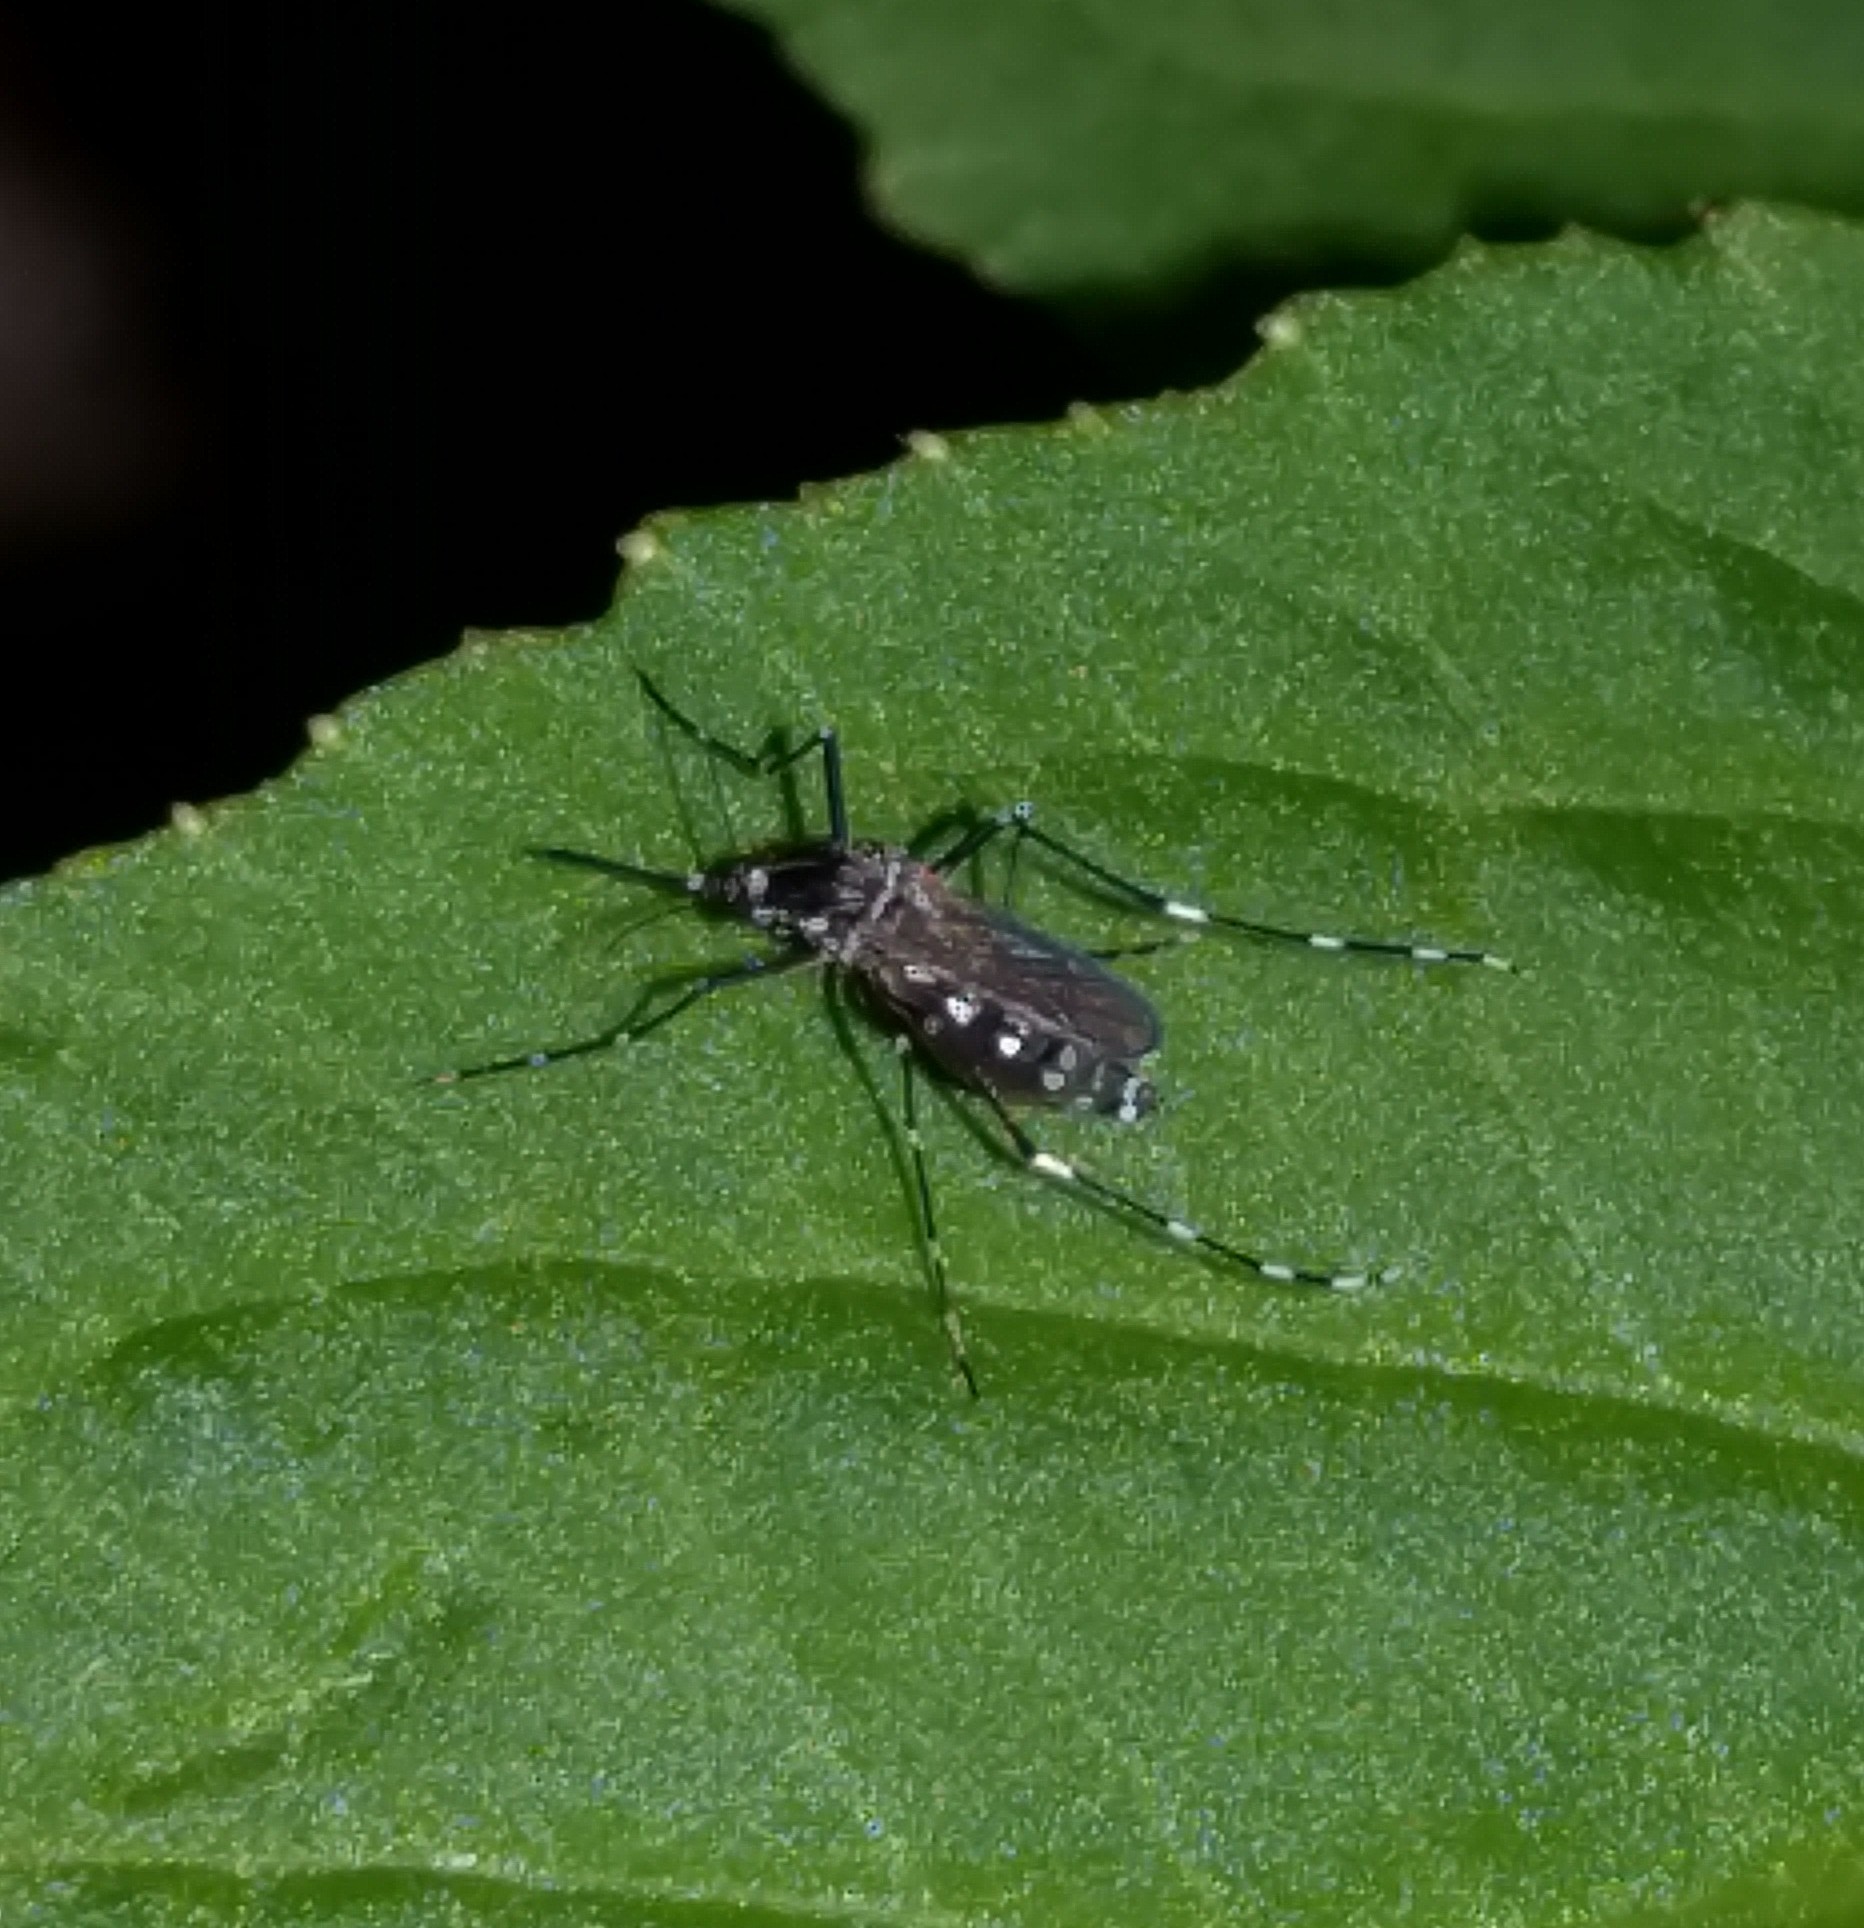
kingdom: Animalia
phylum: Arthropoda
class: Insecta
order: Diptera
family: Culicidae
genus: Aedes
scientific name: Aedes albopictus
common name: Tiger mosquito
